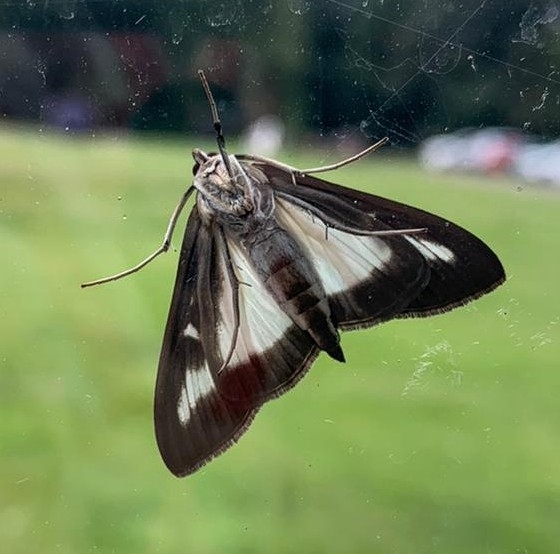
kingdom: Animalia
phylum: Arthropoda
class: Insecta
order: Lepidoptera
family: Crambidae
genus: Cydalima
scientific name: Cydalima perspectalis
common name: Box tree moth
